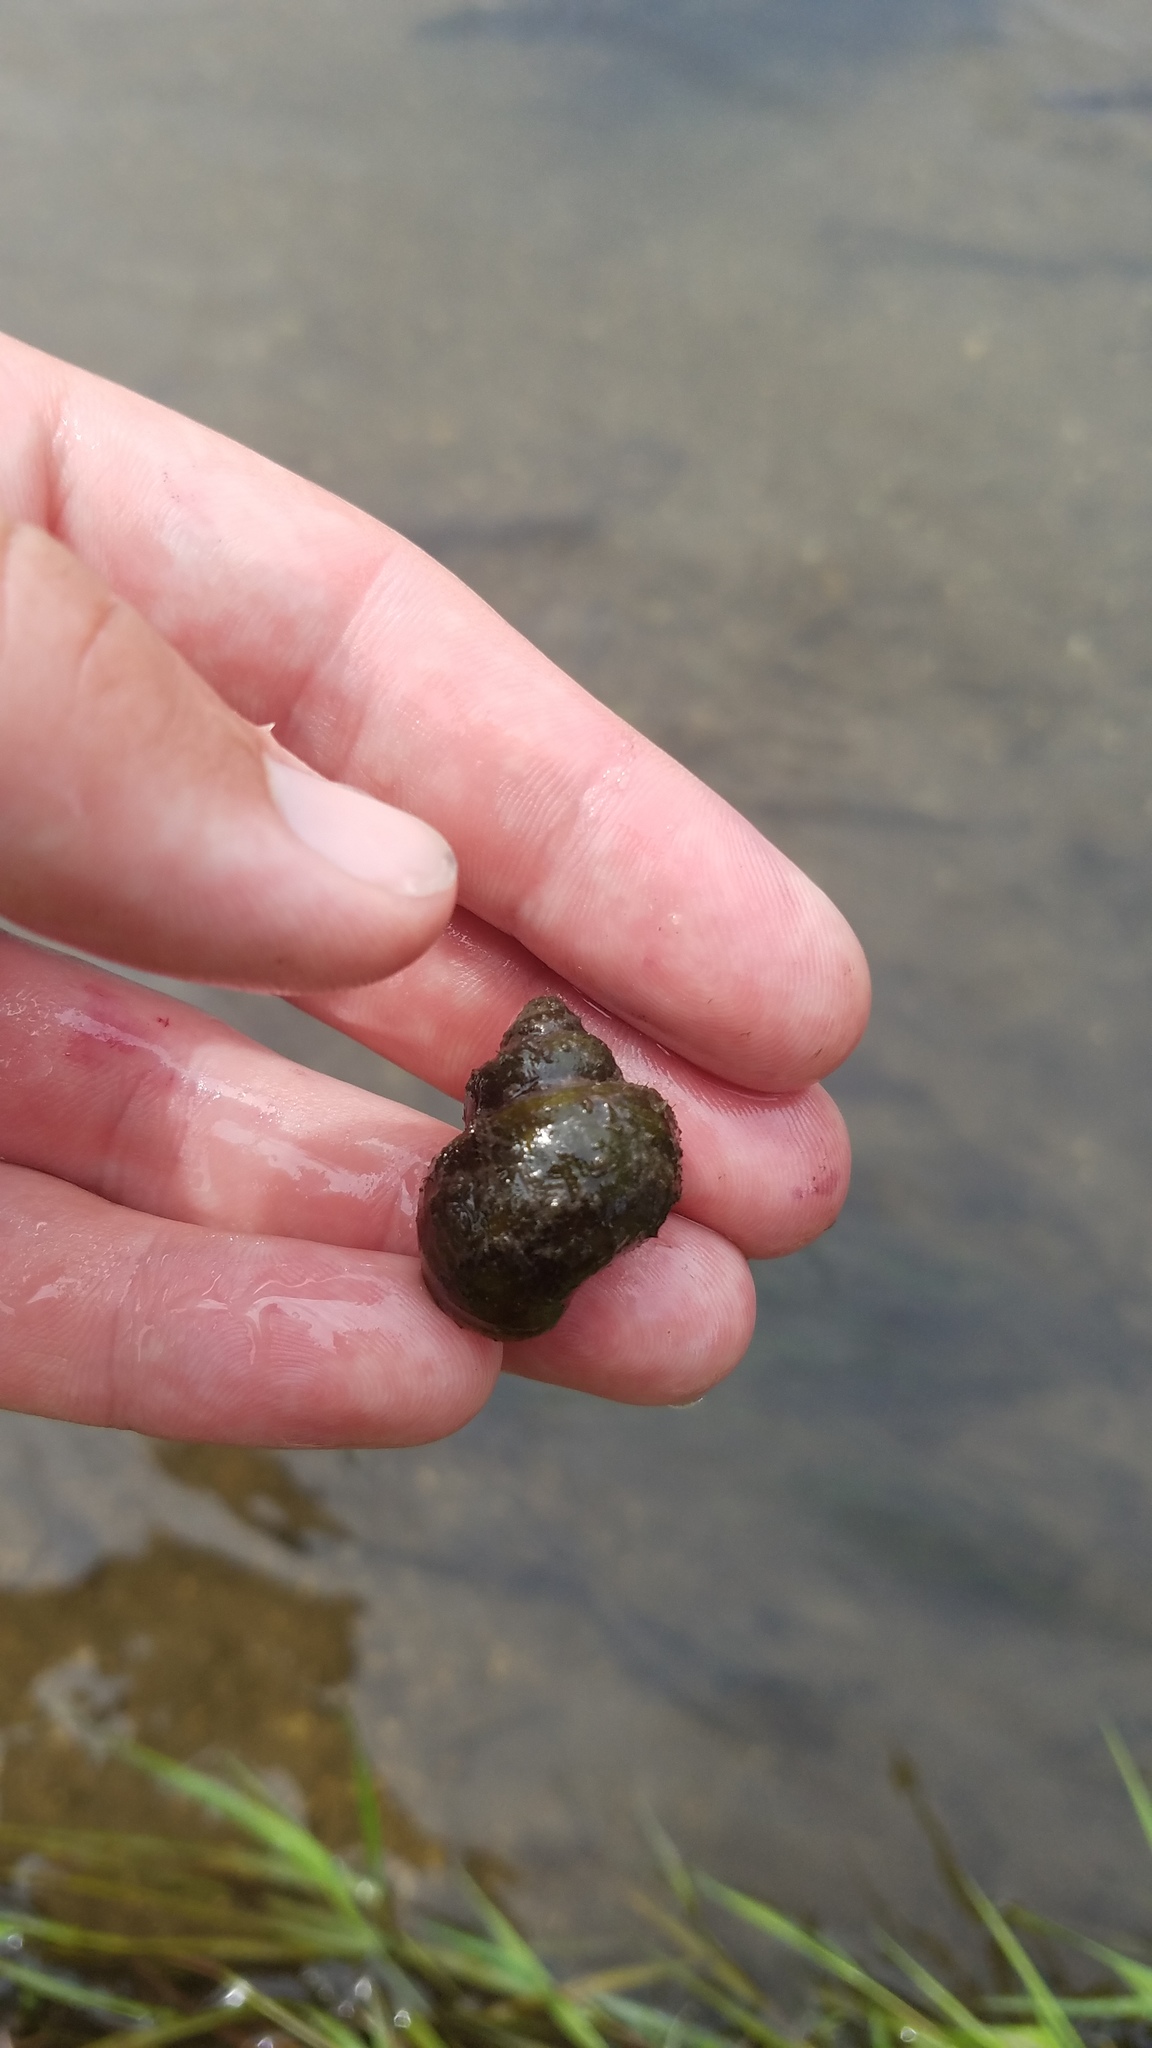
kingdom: Animalia
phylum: Mollusca
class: Gastropoda
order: Architaenioglossa
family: Viviparidae
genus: Callinina
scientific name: Callinina georgiana
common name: Banded mystery snail
